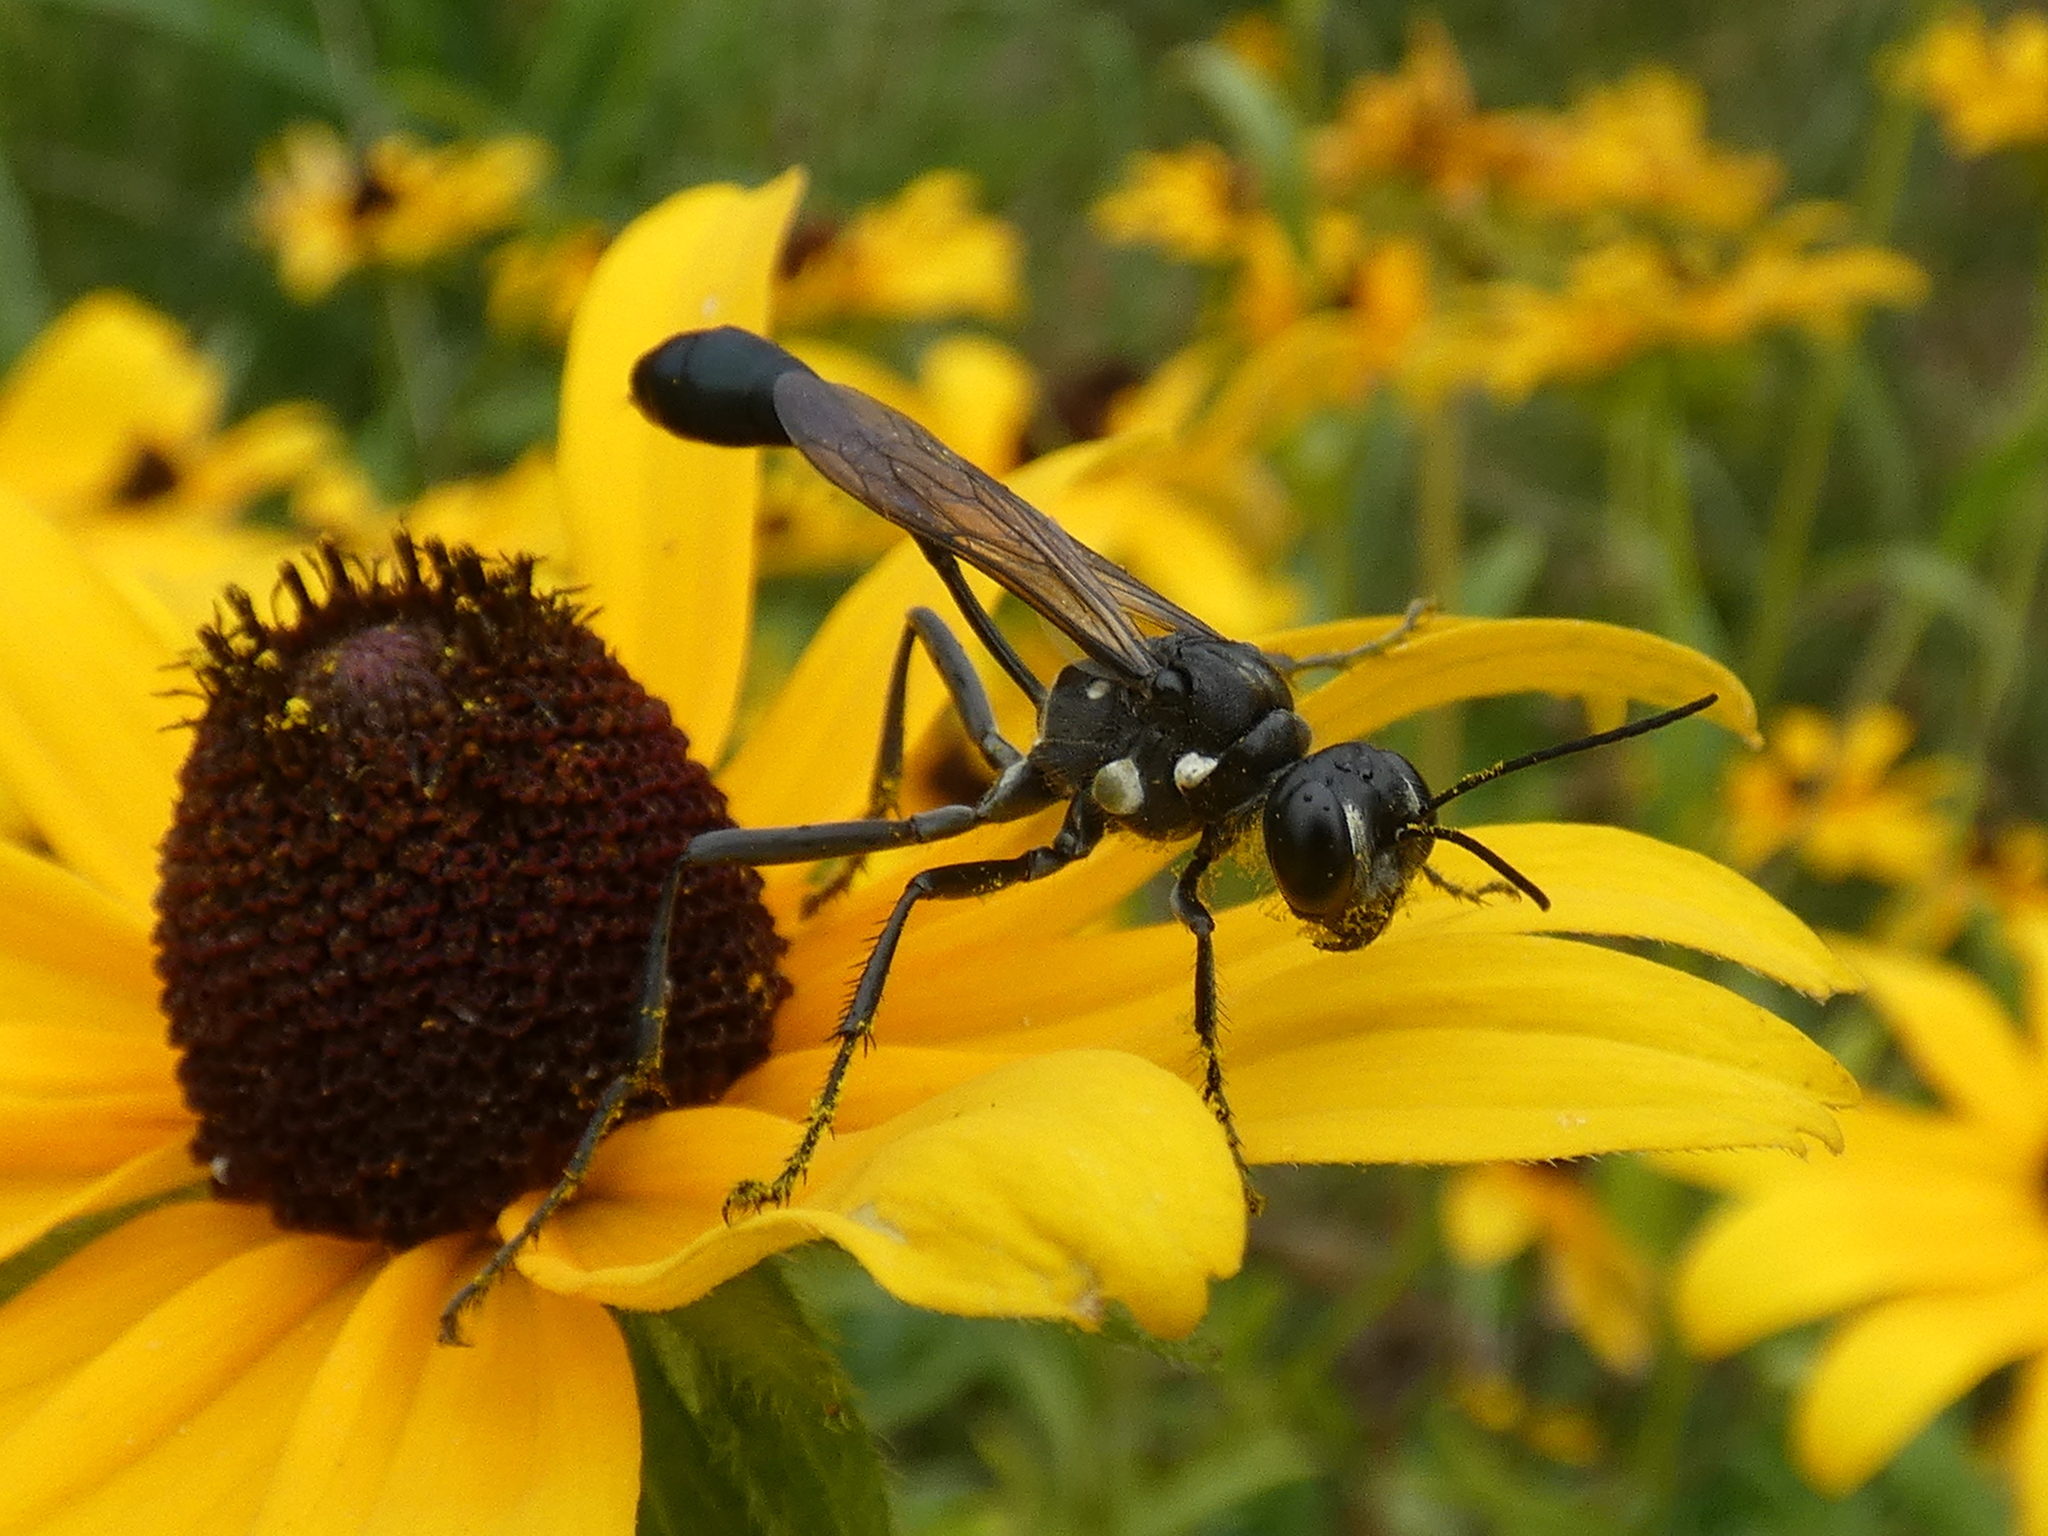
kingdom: Animalia
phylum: Arthropoda
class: Insecta
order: Hymenoptera
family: Sphecidae
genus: Eremnophila
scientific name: Eremnophila aureonotata
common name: Gold-marked thread-waisted wasp
